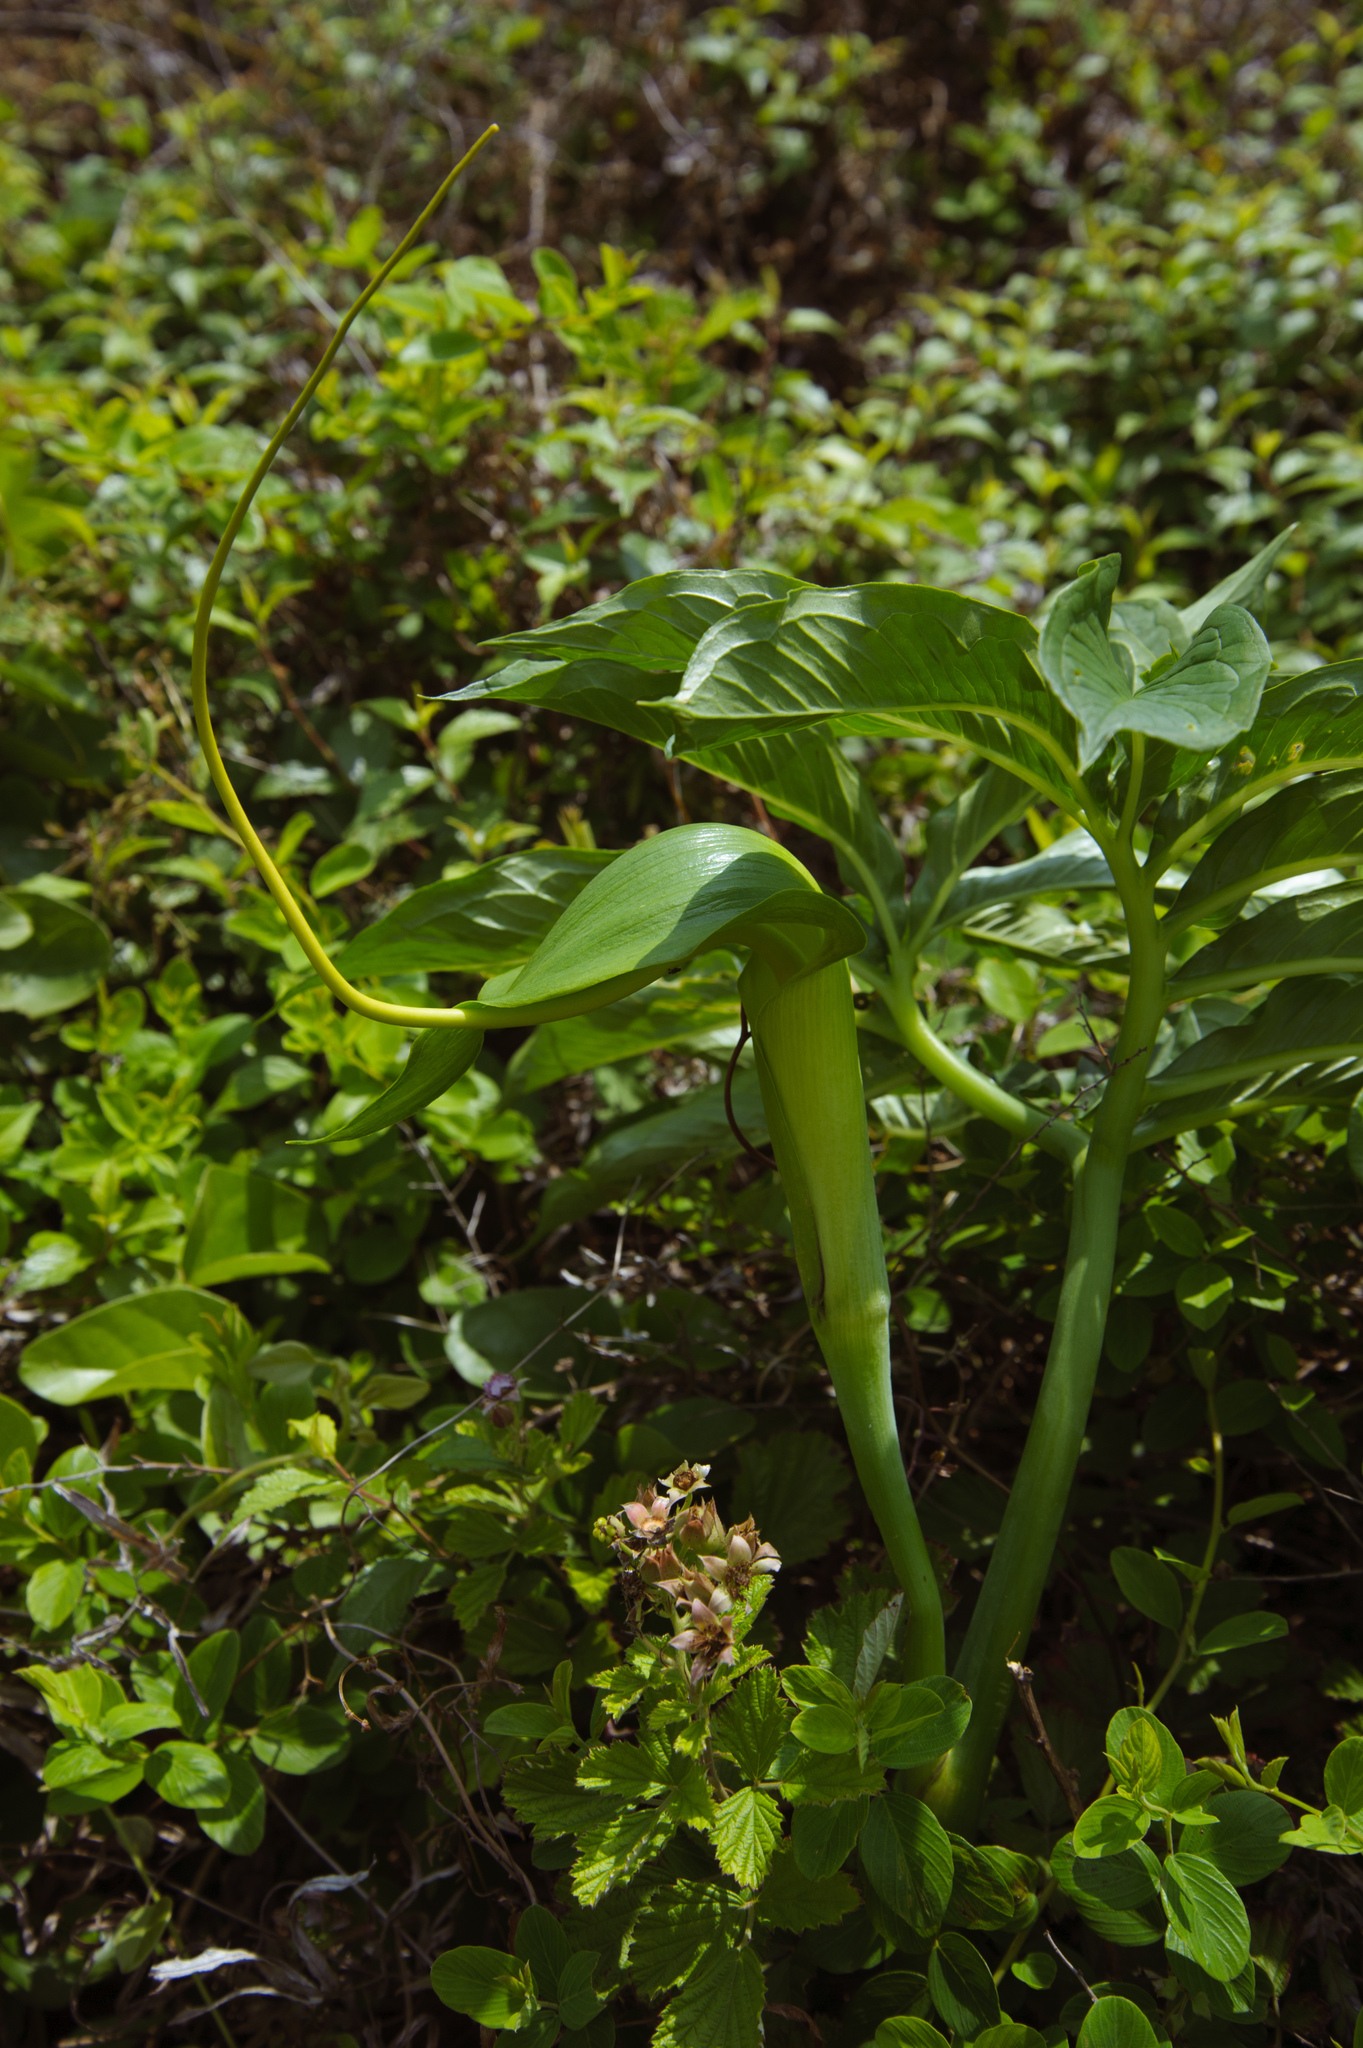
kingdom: Plantae
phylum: Tracheophyta
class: Liliopsida
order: Alismatales
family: Araceae
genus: Arisaema
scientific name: Arisaema heterophyllum
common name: Dancing crane cobra lily
